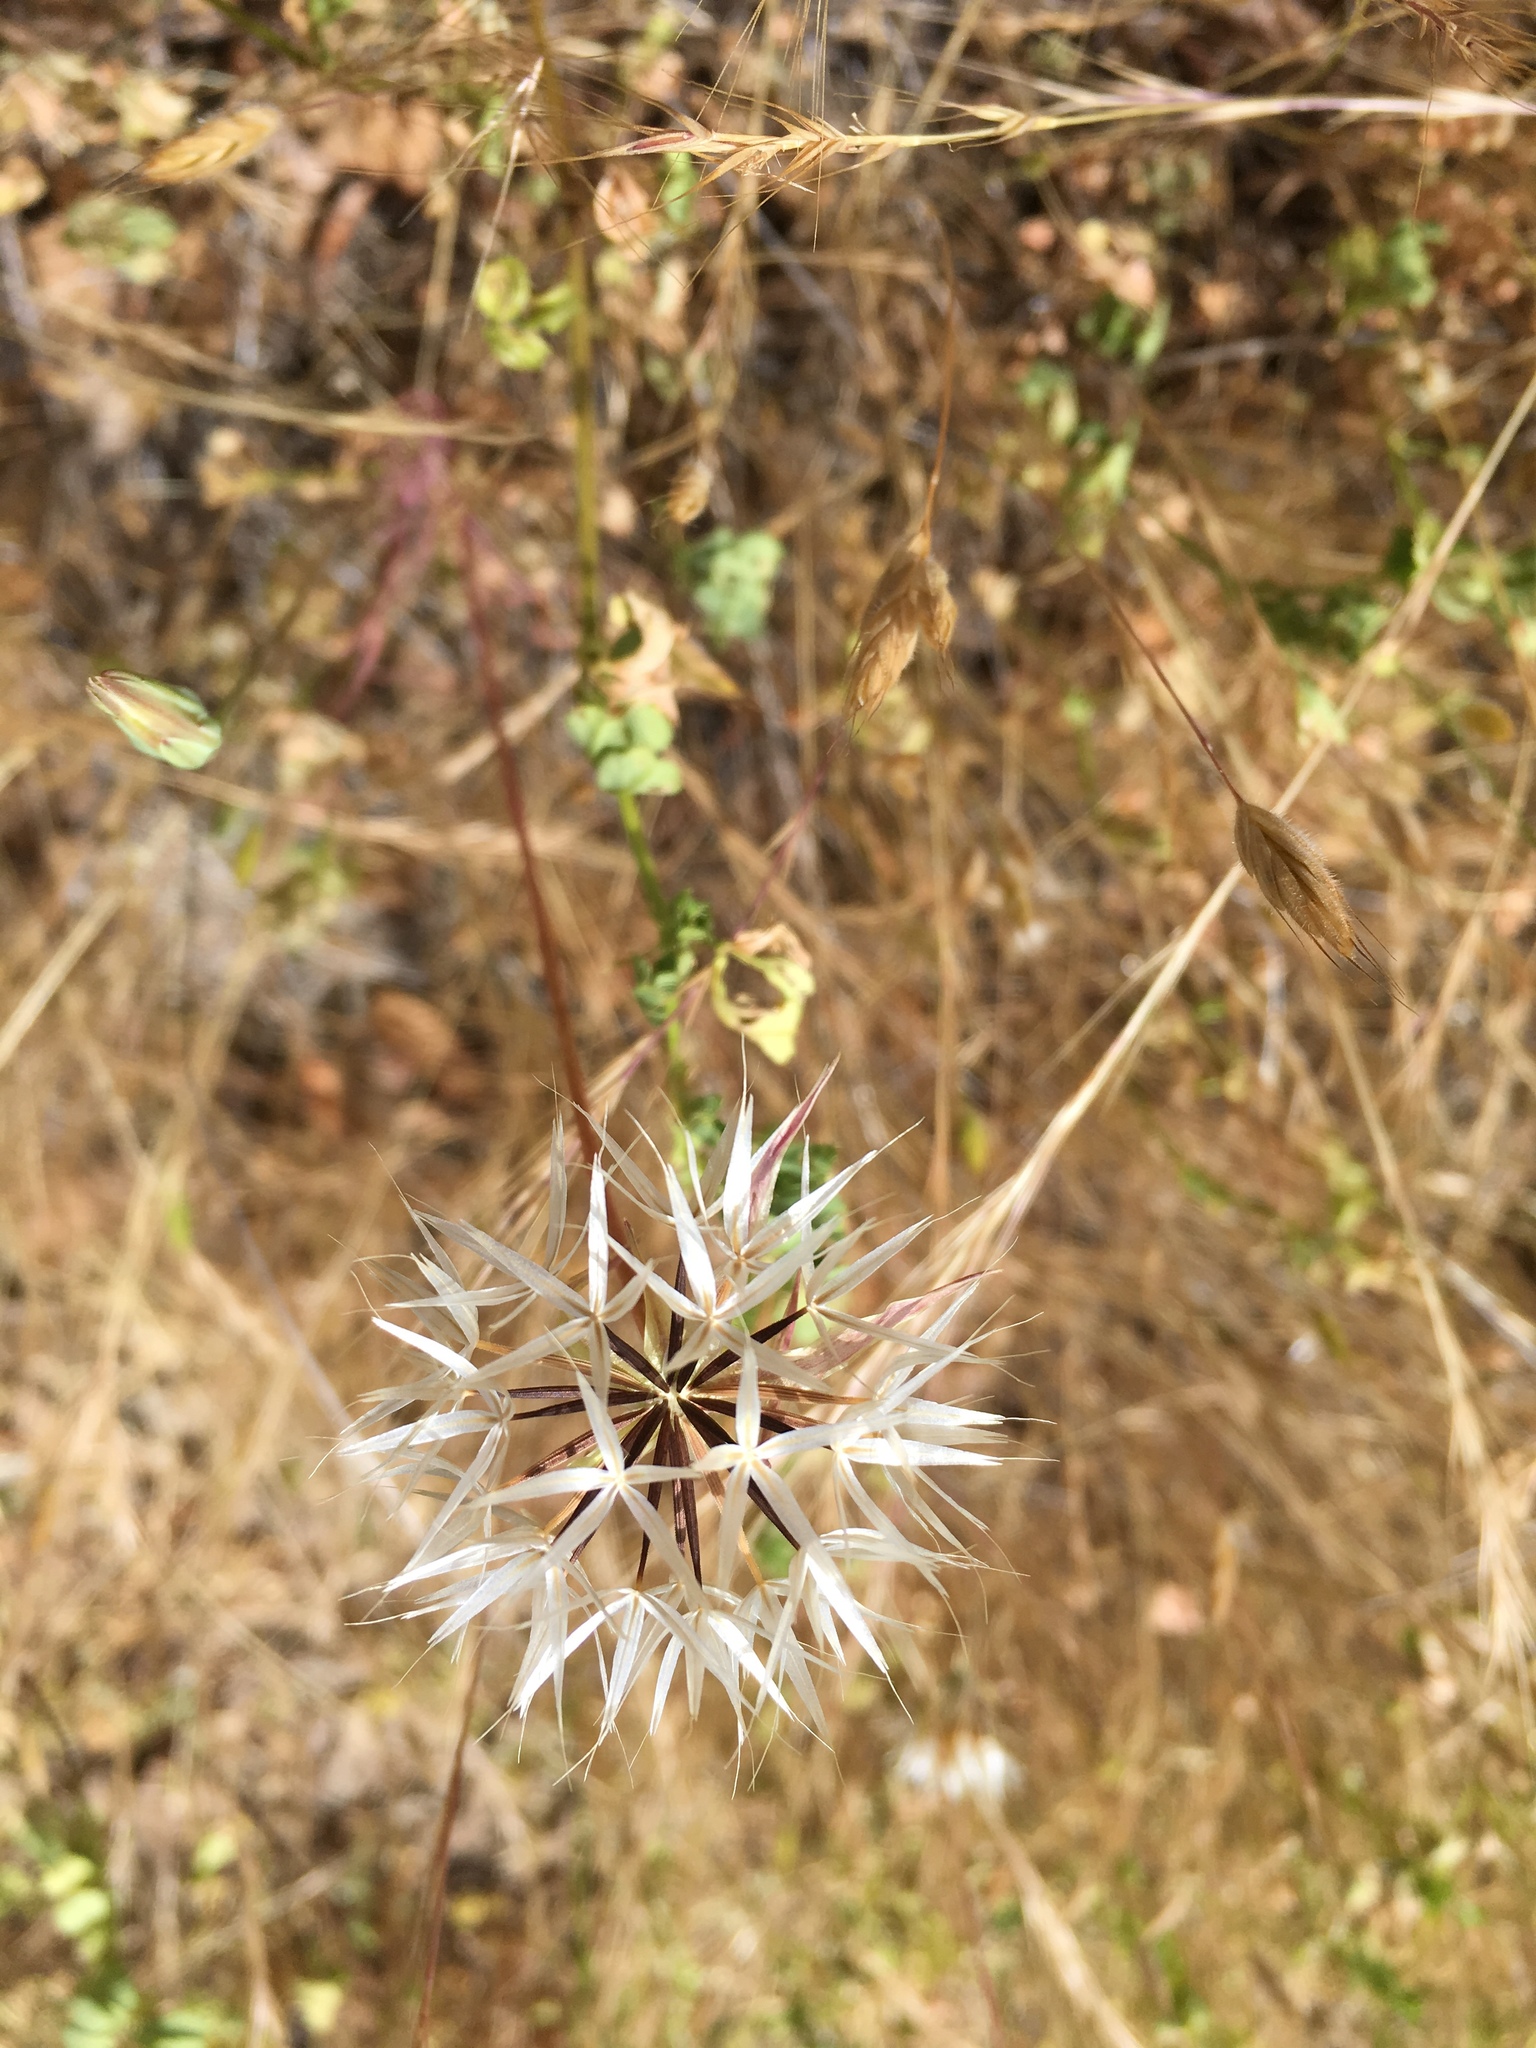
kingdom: Plantae
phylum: Tracheophyta
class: Magnoliopsida
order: Asterales
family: Asteraceae
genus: Microseris
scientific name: Microseris lindleyi
